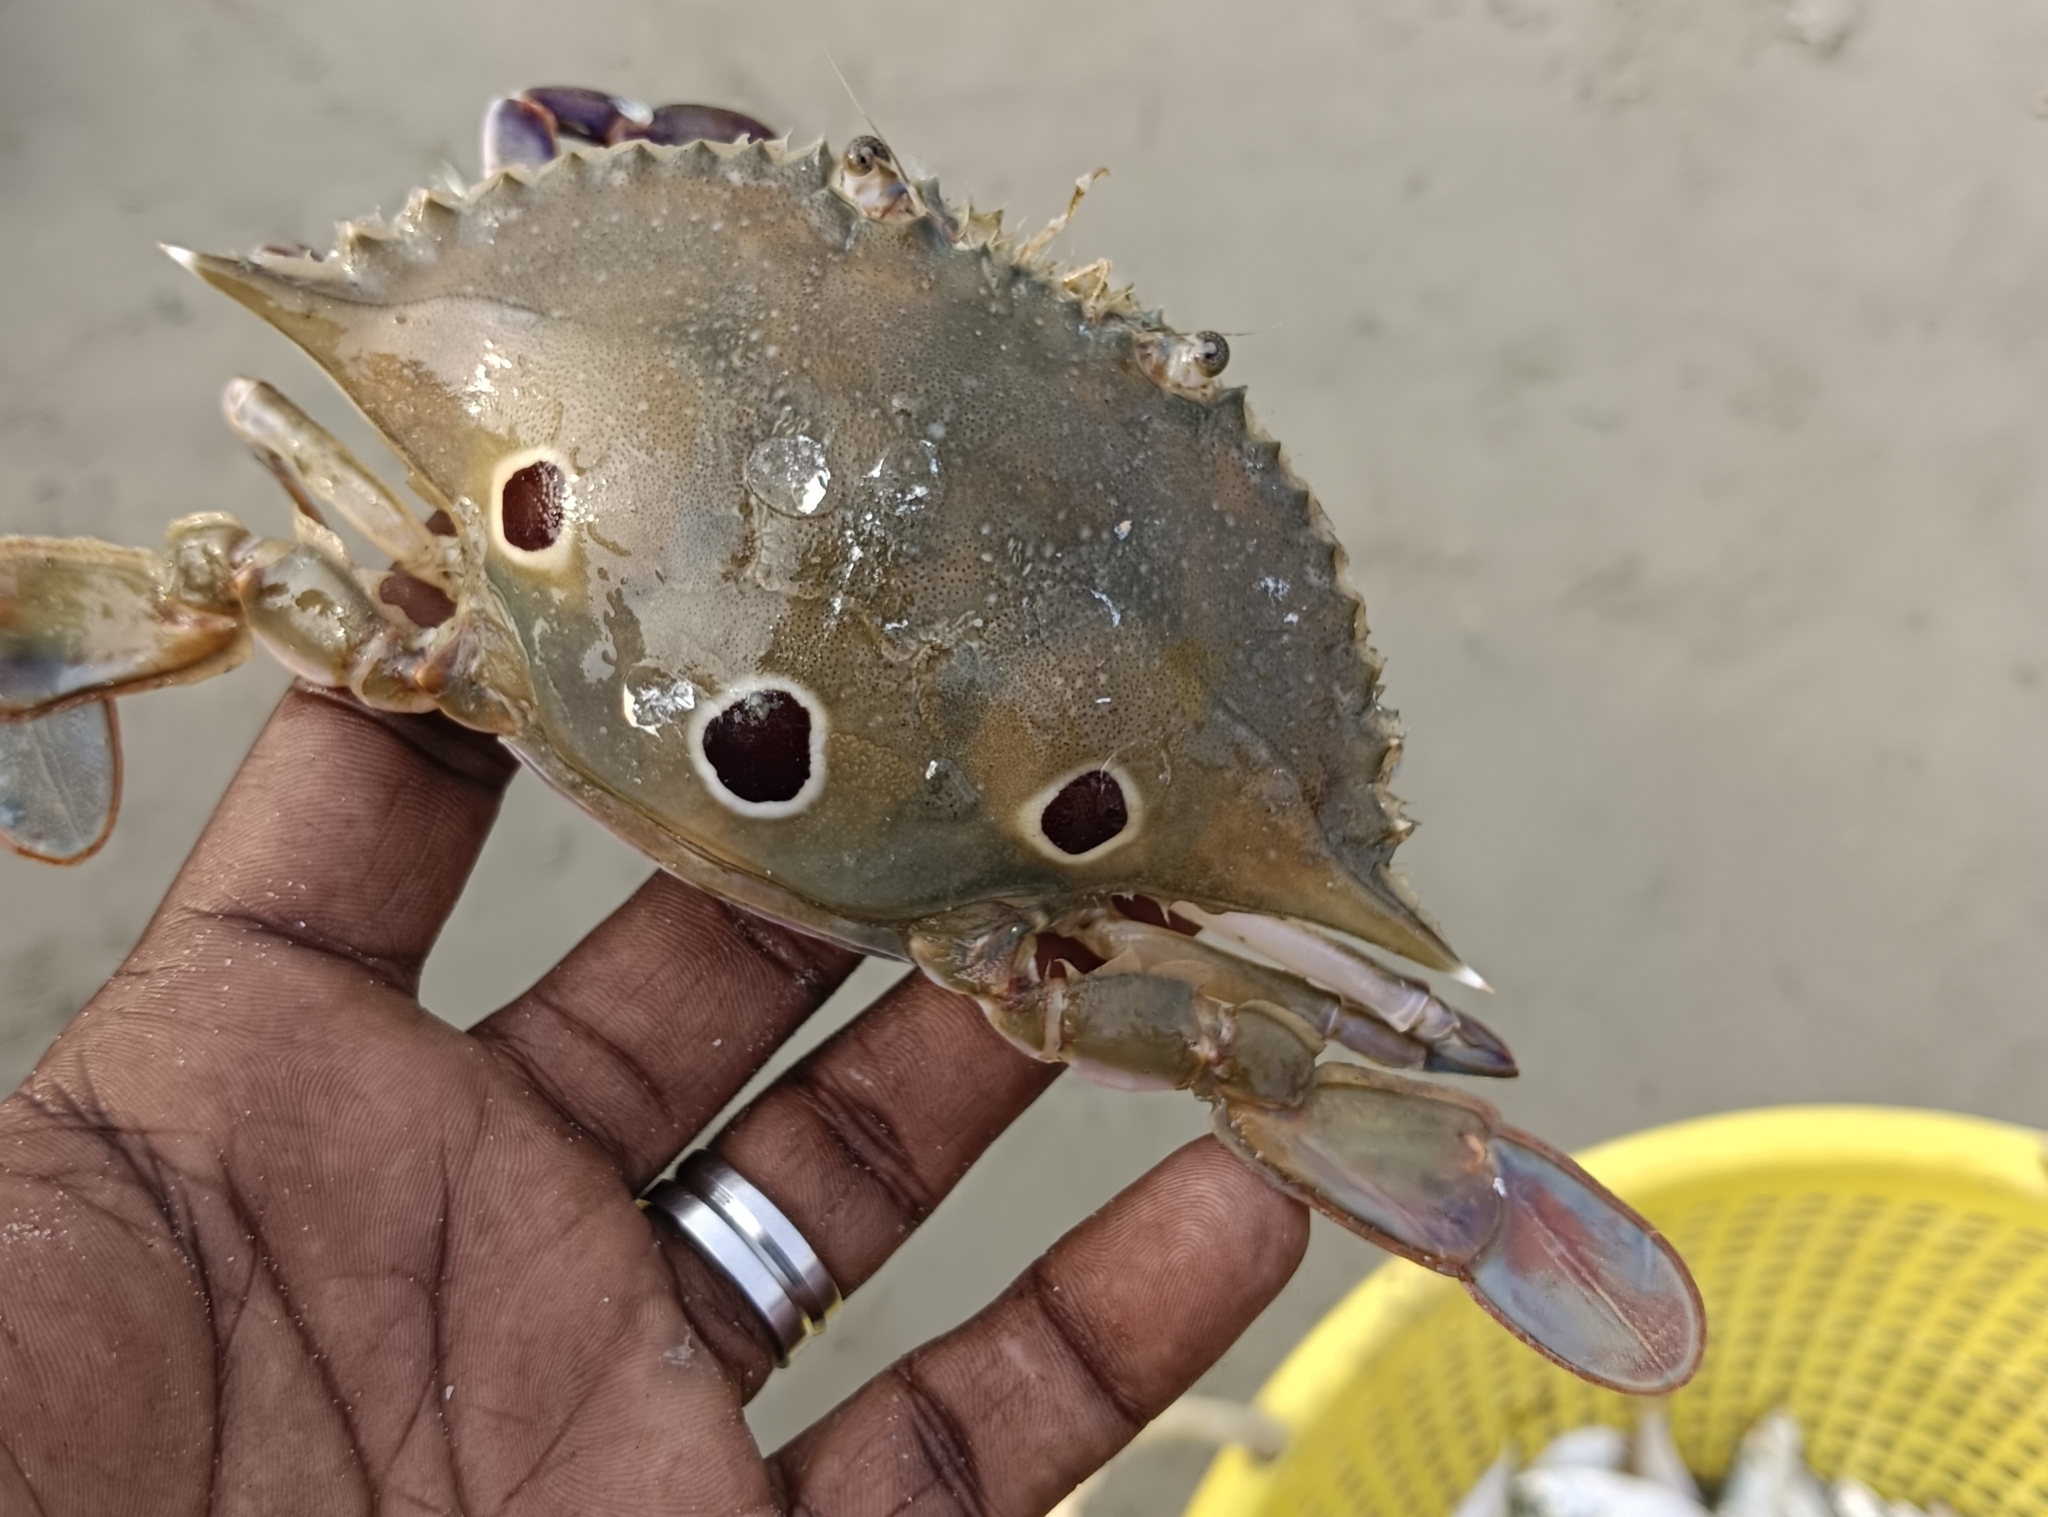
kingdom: Animalia
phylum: Arthropoda
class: Malacostraca
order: Decapoda
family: Portunidae
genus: Portunus
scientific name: Portunus sanguinolentus
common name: Blood-spotted swimming crab
